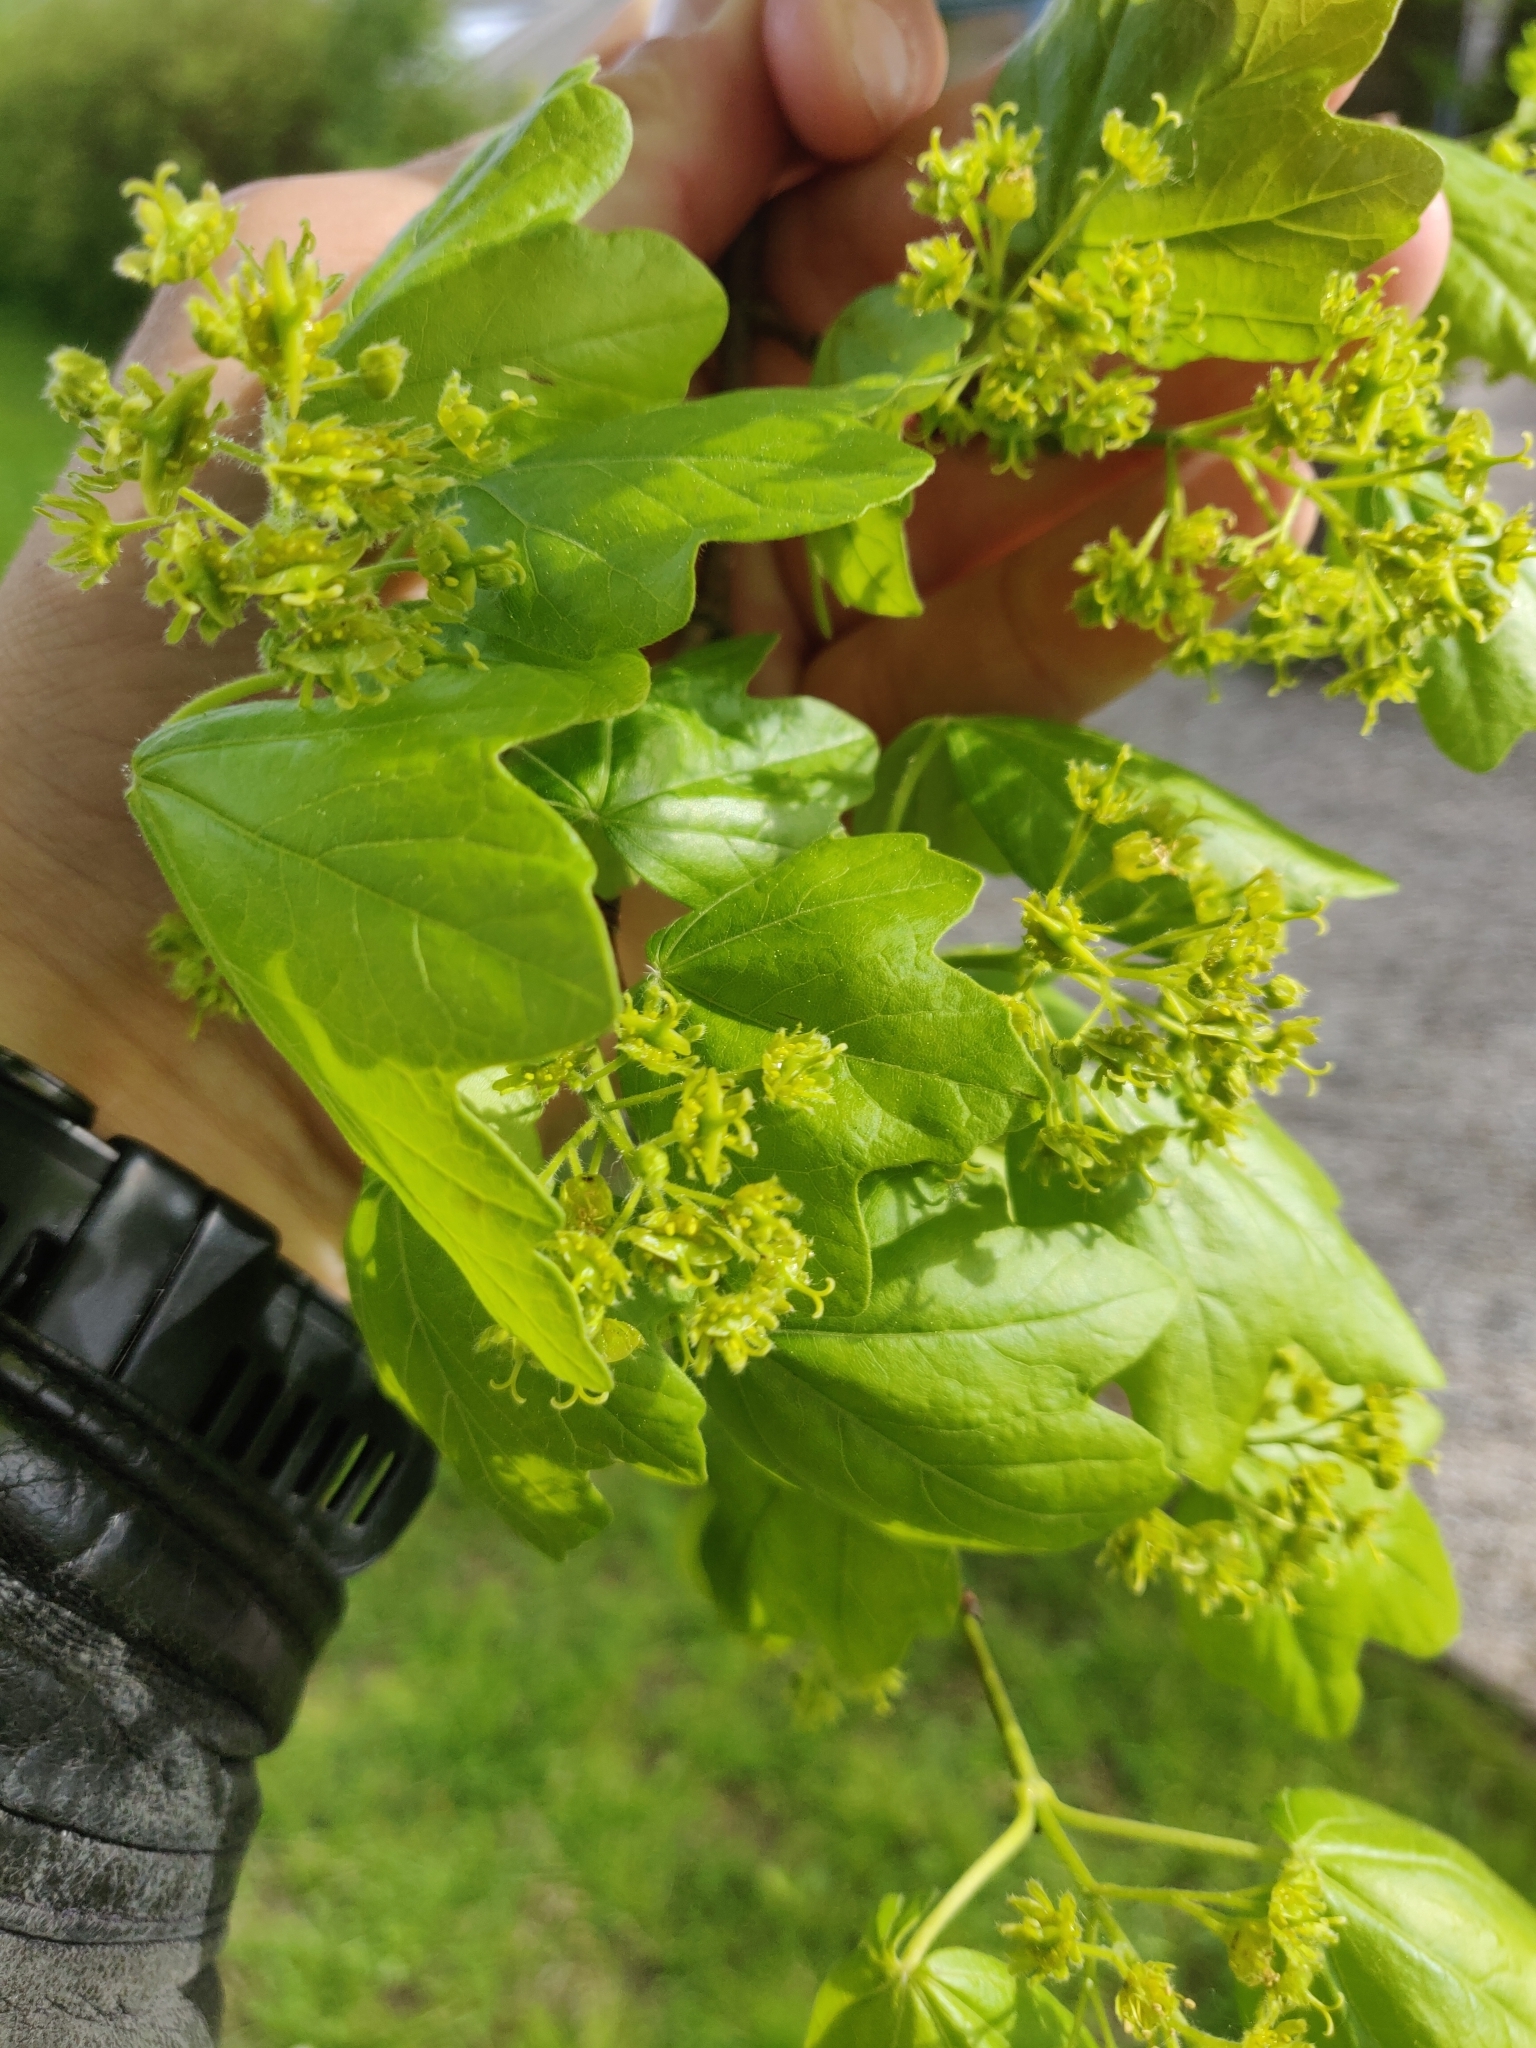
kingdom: Plantae
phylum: Tracheophyta
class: Magnoliopsida
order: Sapindales
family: Sapindaceae
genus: Acer
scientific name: Acer campestre
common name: Field maple
